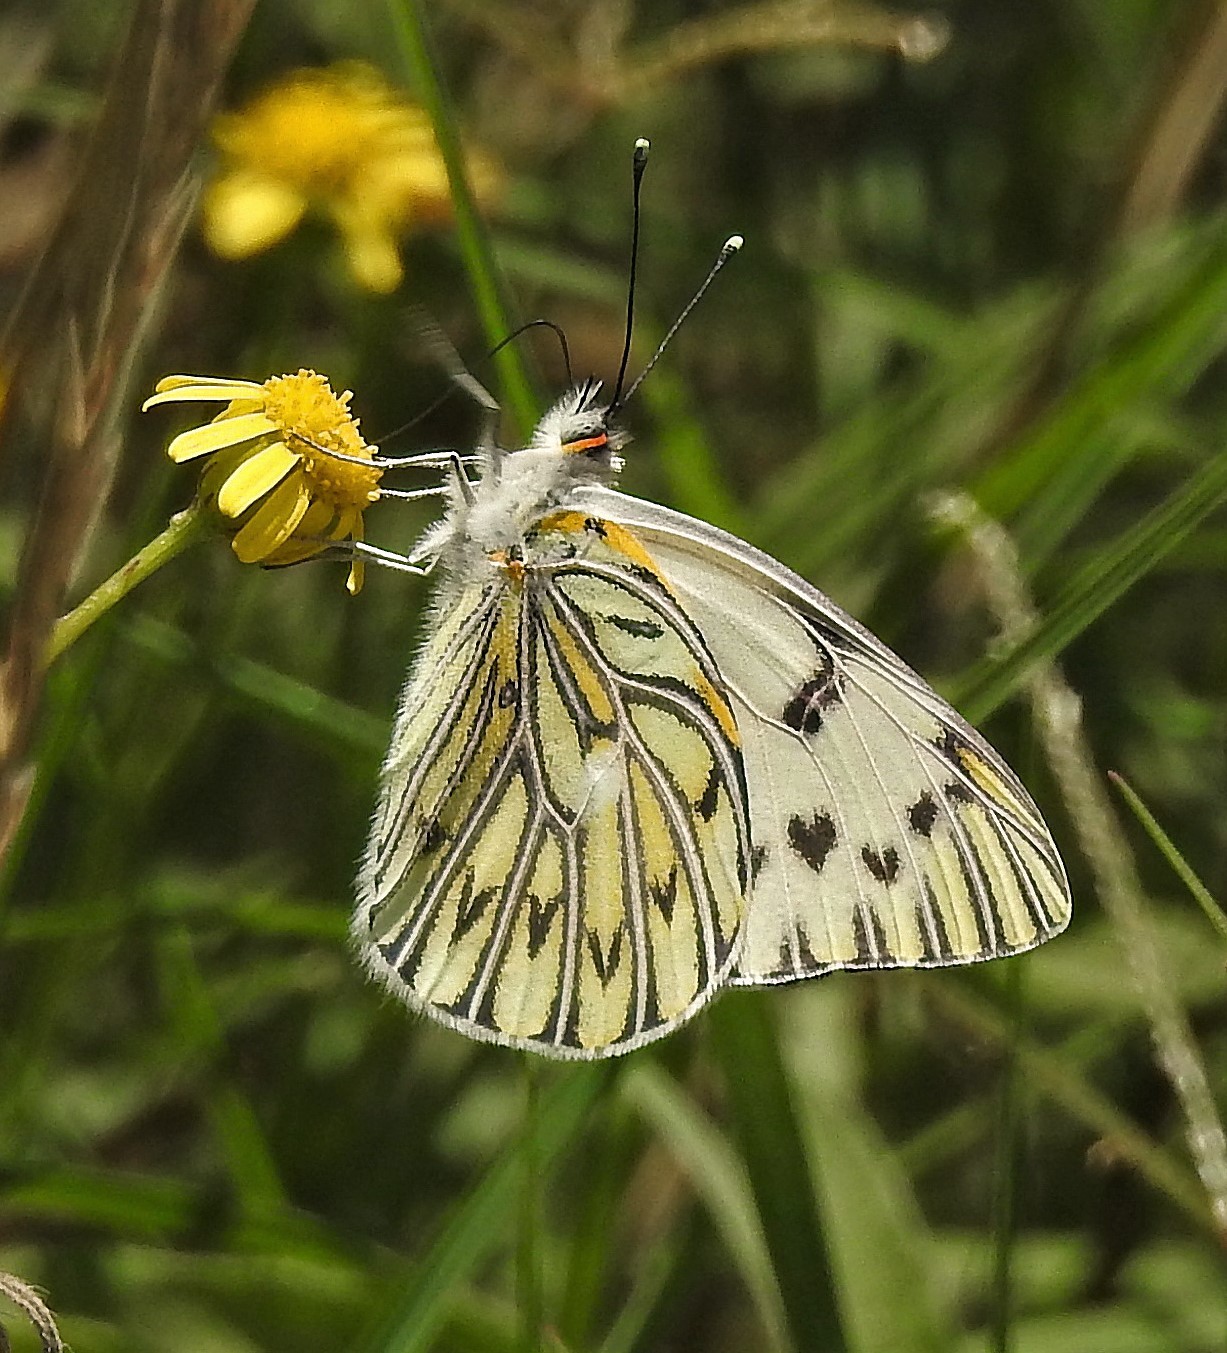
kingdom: Animalia
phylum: Arthropoda
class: Insecta
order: Lepidoptera
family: Pieridae
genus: Tatochila
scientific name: Tatochila autodice
